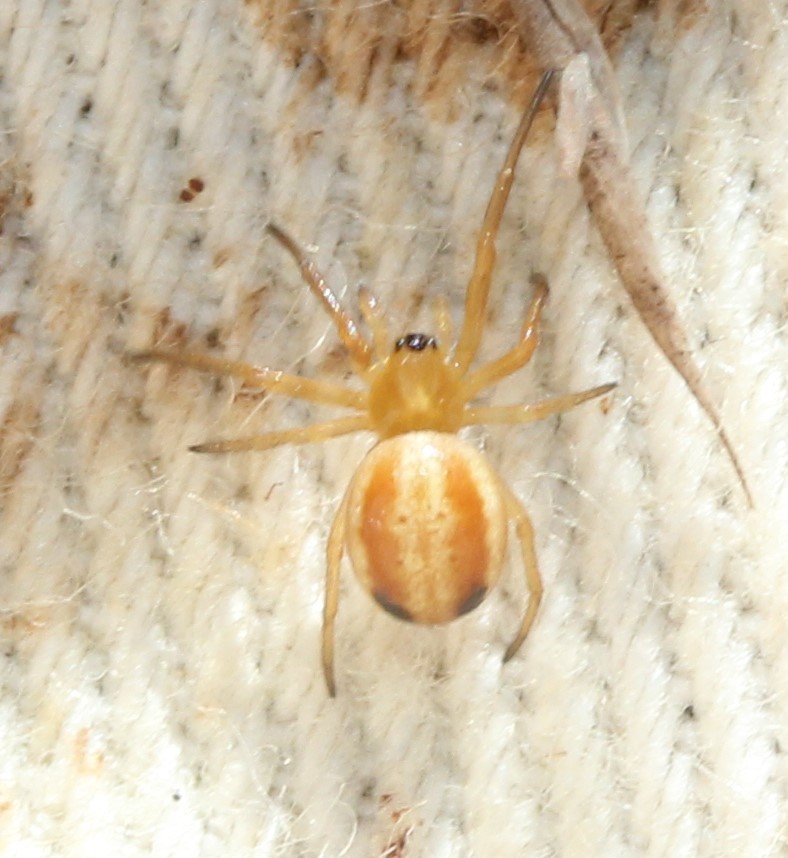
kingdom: Animalia
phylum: Arthropoda
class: Arachnida
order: Araneae
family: Araneidae
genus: Araneus
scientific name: Araneus pratensis
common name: Openfield orbweaver
